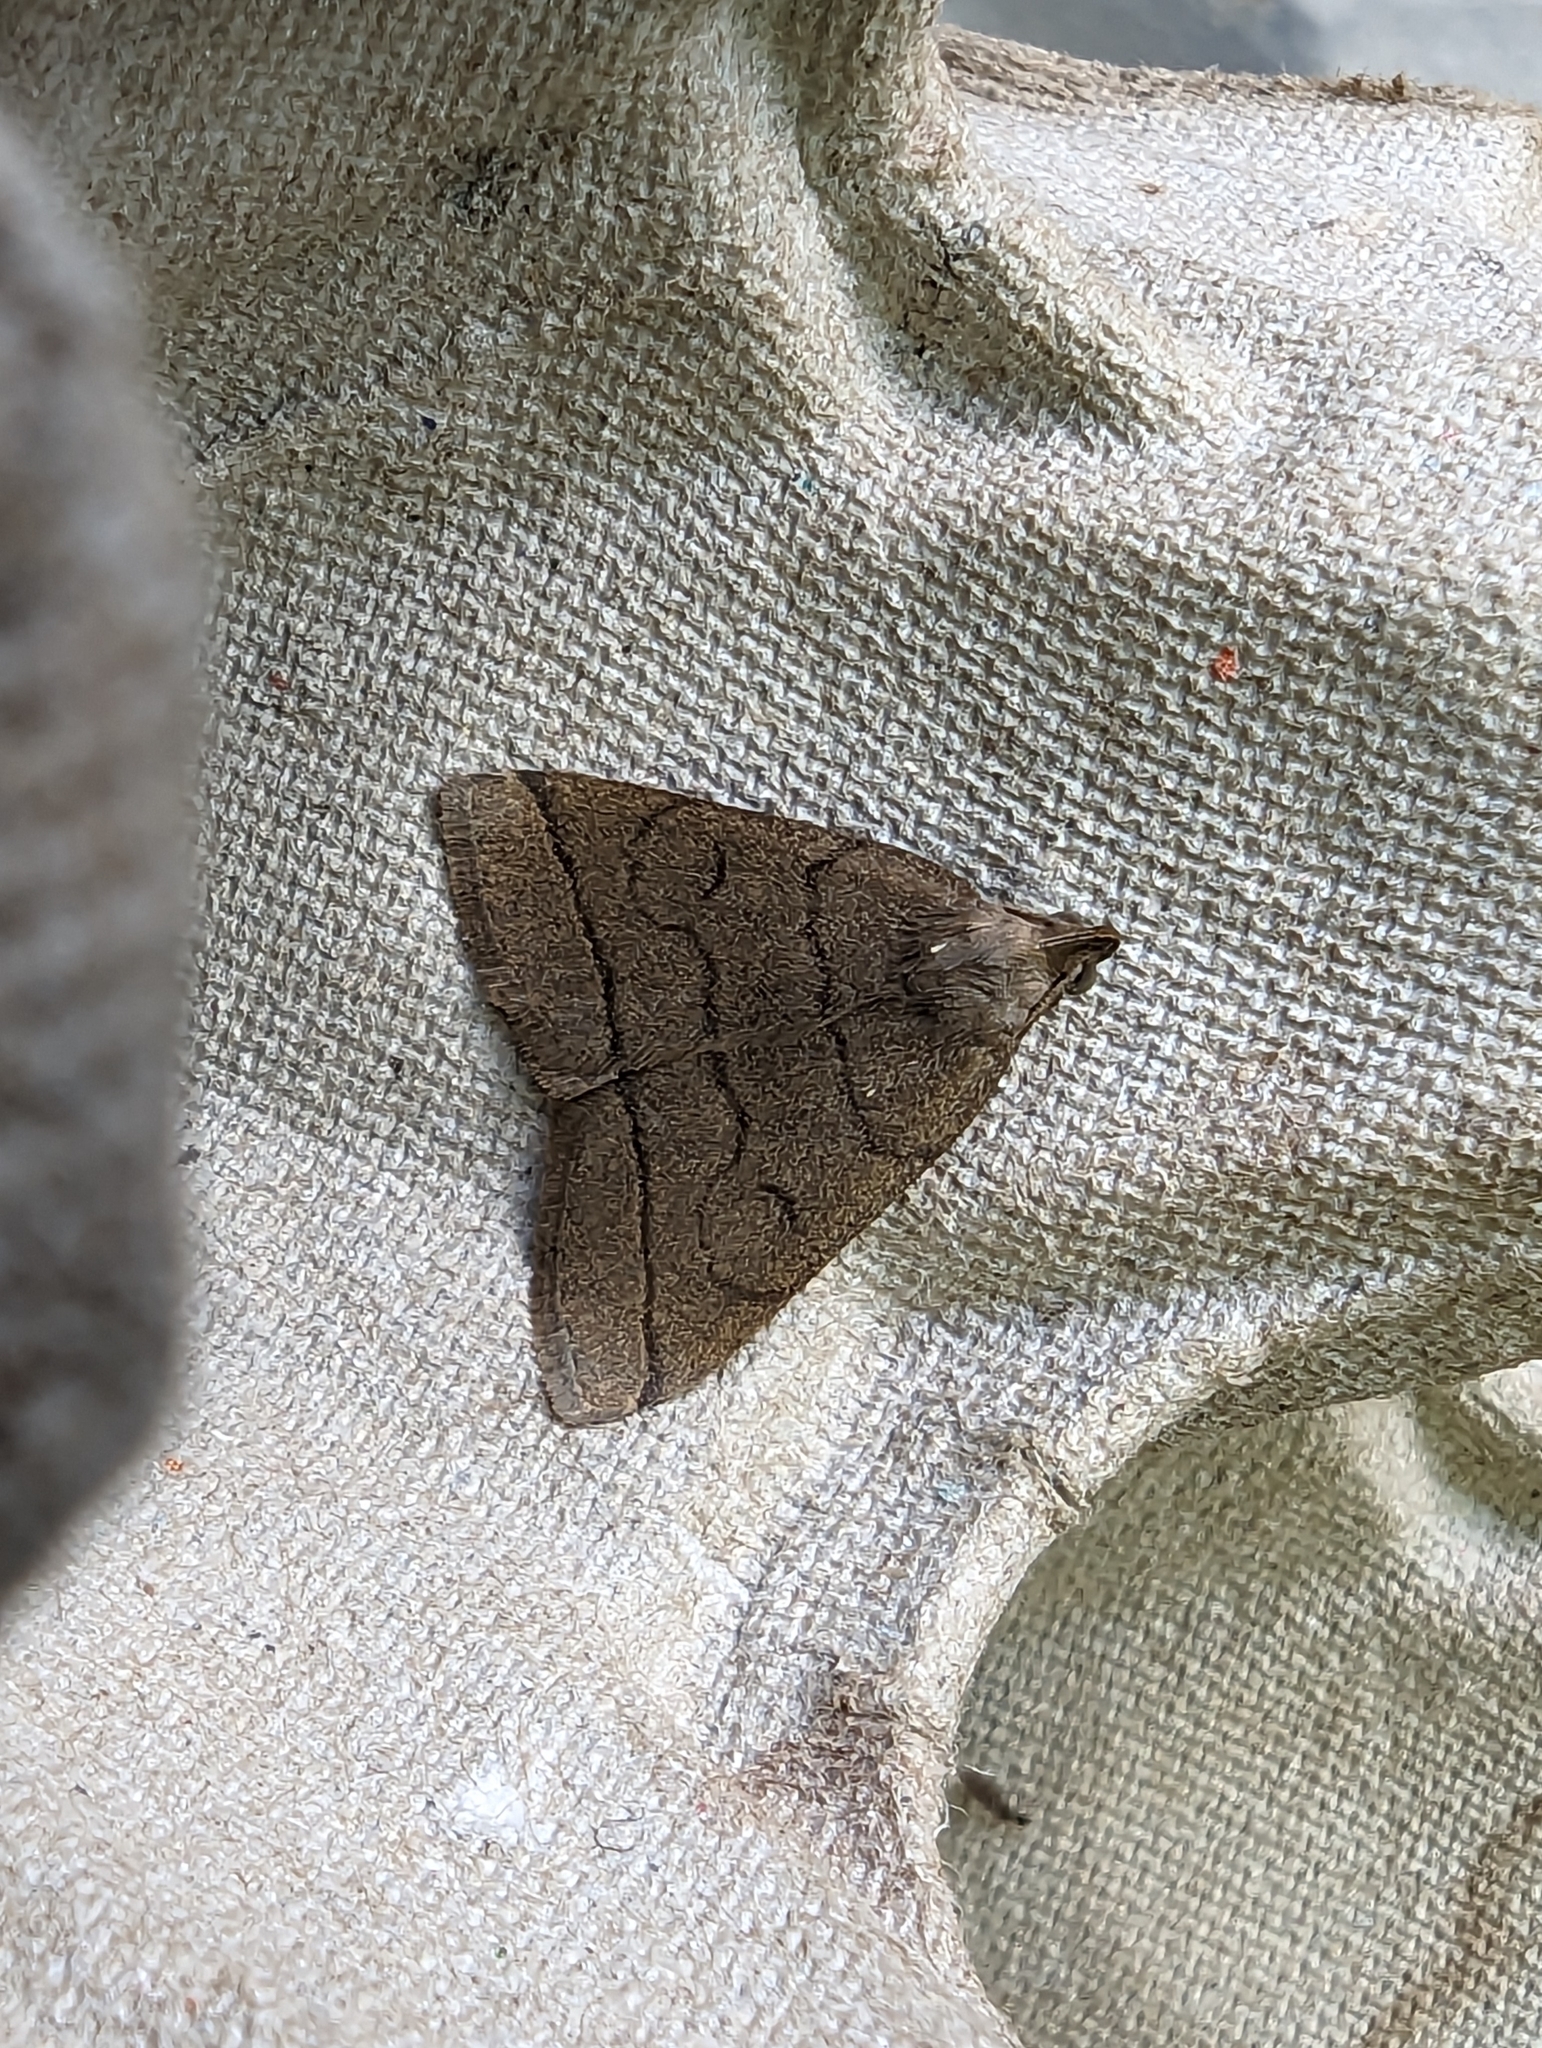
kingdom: Animalia
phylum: Arthropoda
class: Insecta
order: Lepidoptera
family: Erebidae
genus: Herminia
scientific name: Herminia tarsipennalis
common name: Fan-foot
